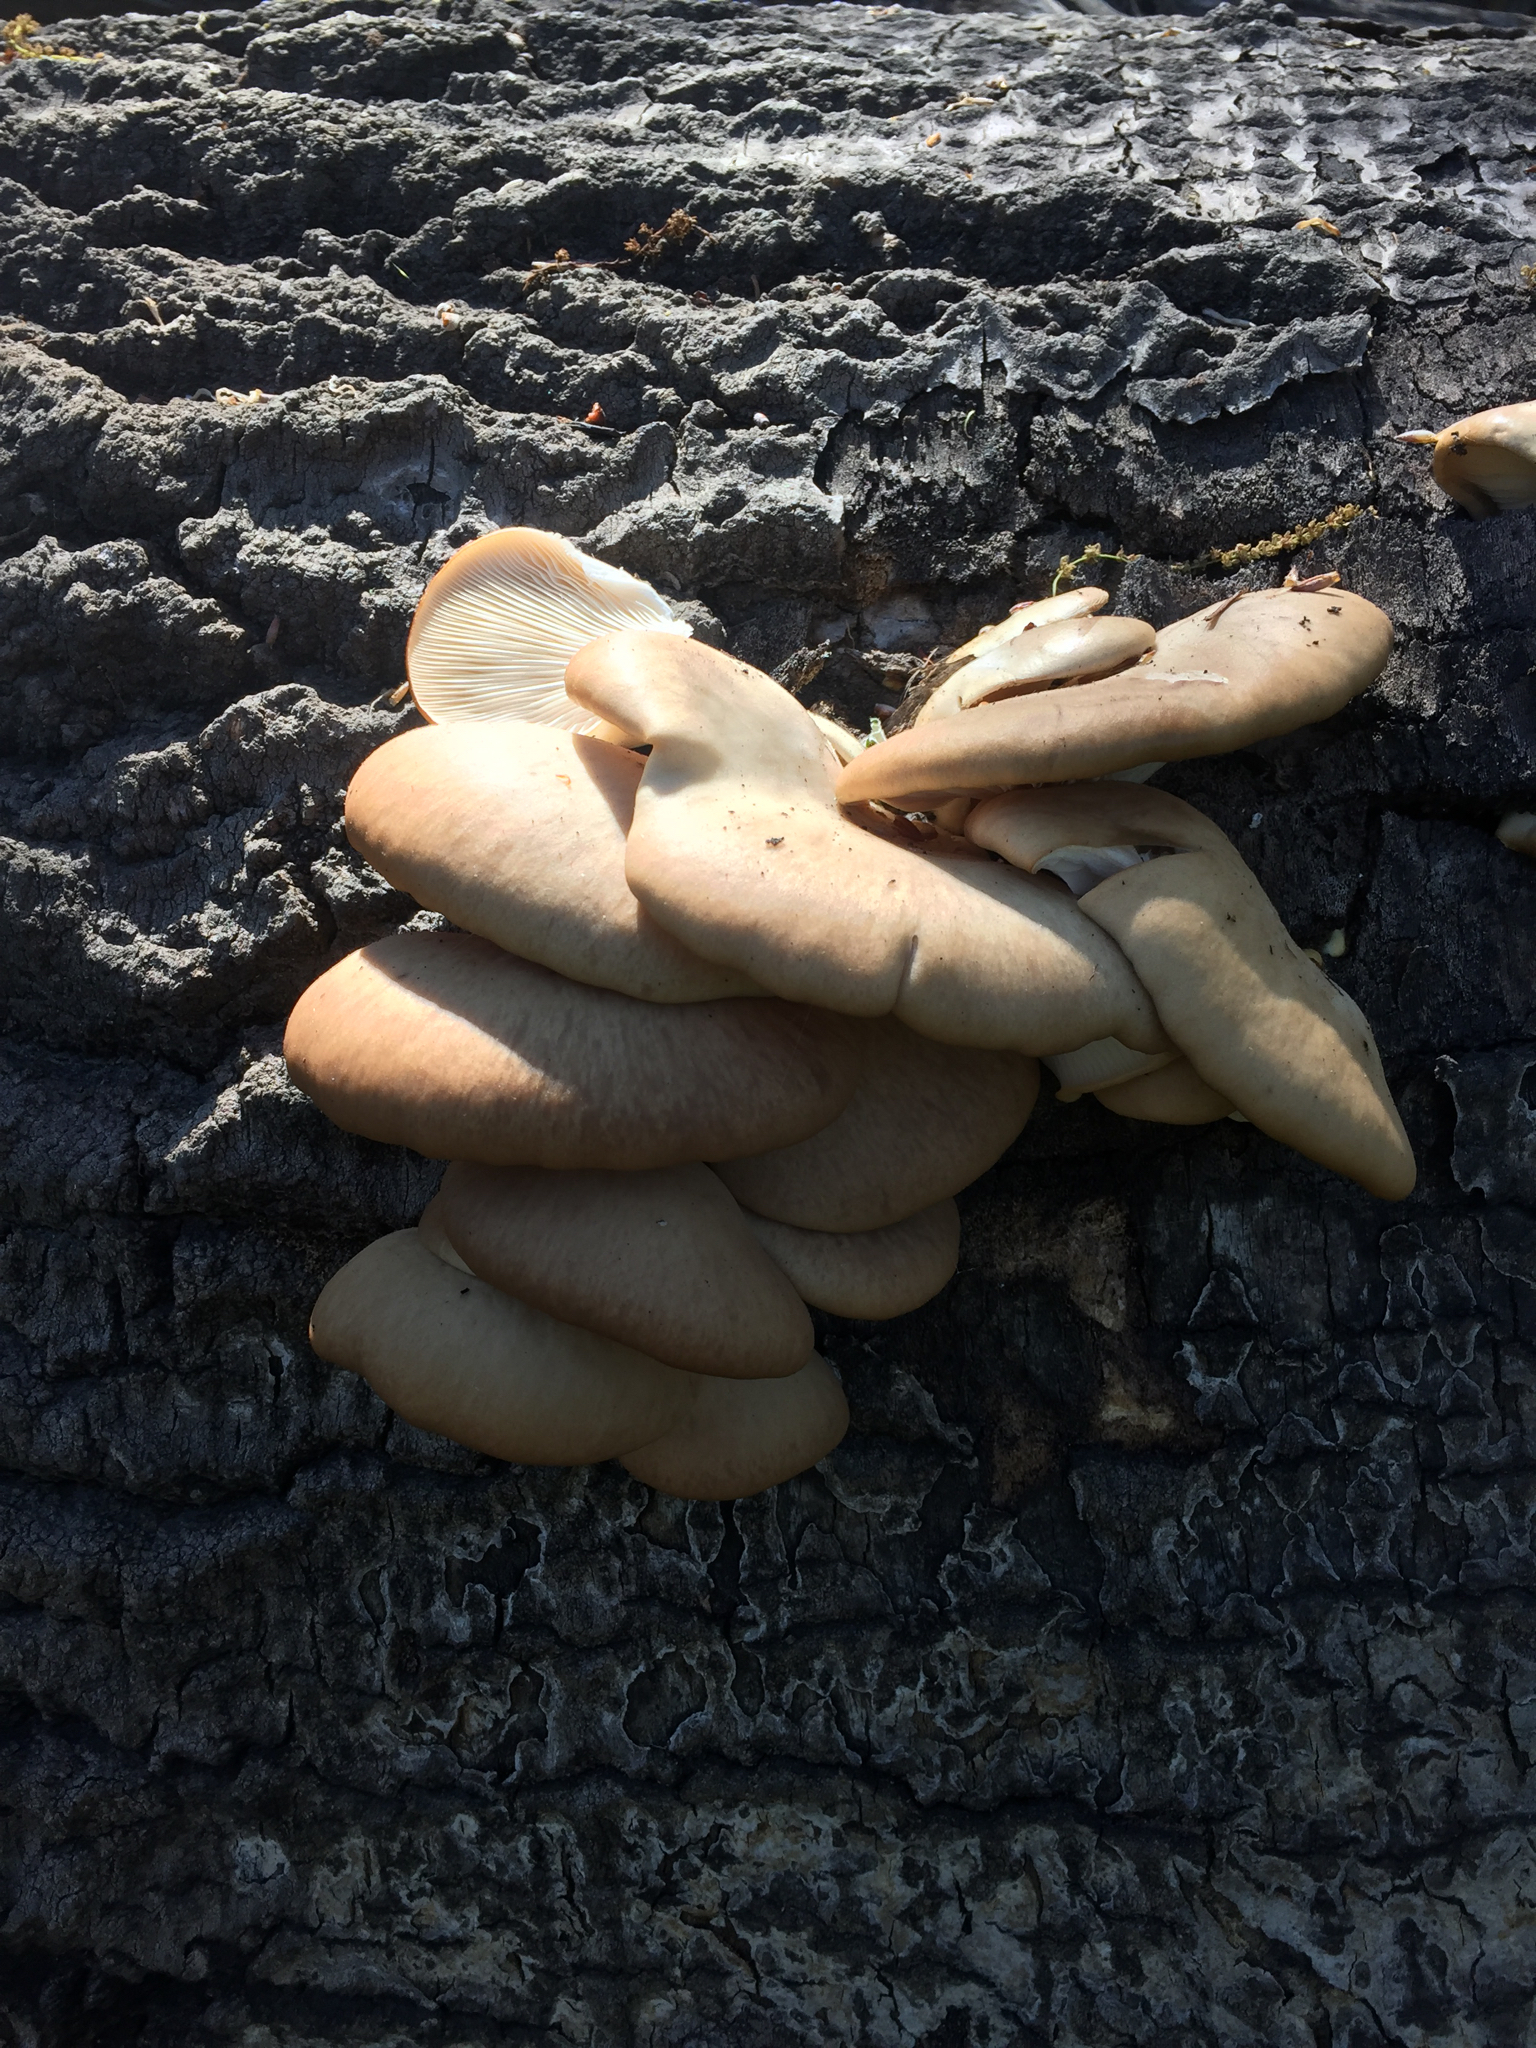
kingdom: Fungi
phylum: Basidiomycota
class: Agaricomycetes
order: Agaricales
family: Pleurotaceae
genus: Pleurotus
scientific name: Pleurotus populinus
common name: Aspen oyster mushroom
